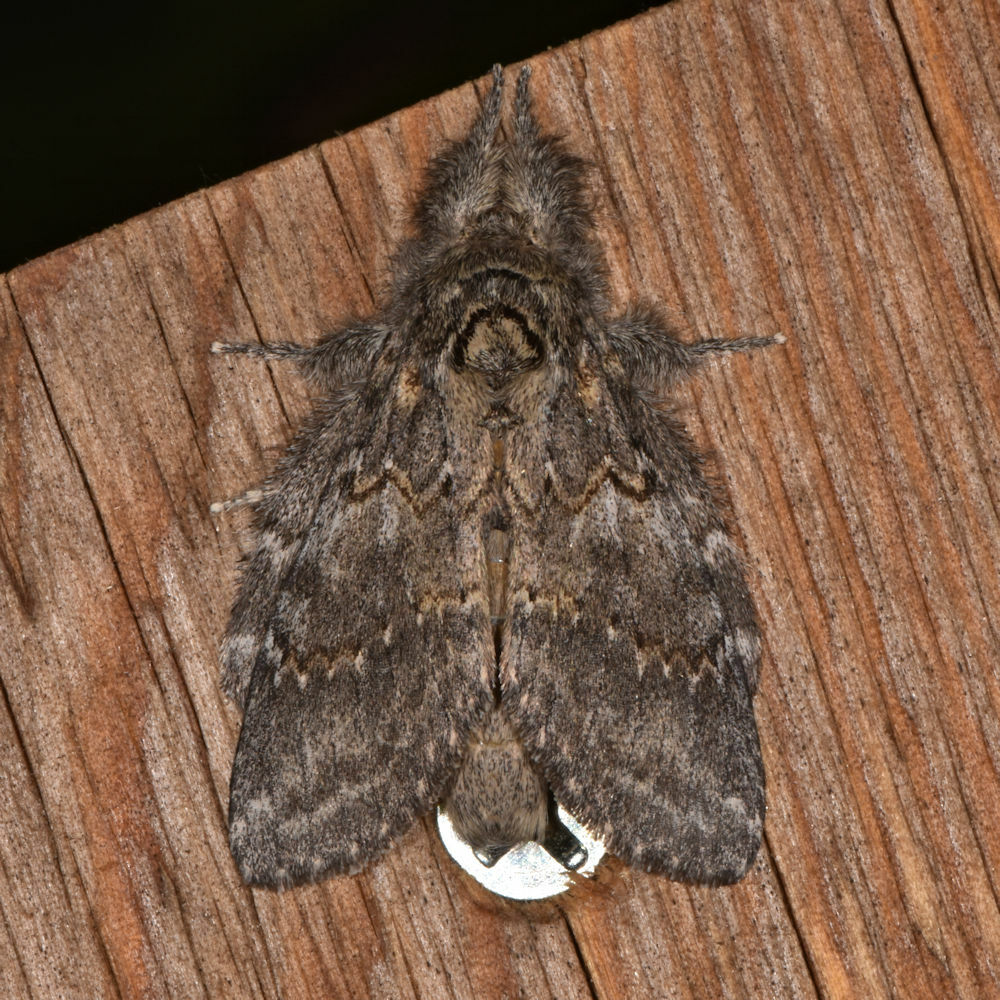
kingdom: Animalia
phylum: Arthropoda
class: Insecta
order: Lepidoptera
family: Notodontidae
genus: Peridea
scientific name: Peridea angulosa
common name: Angulose prominent
